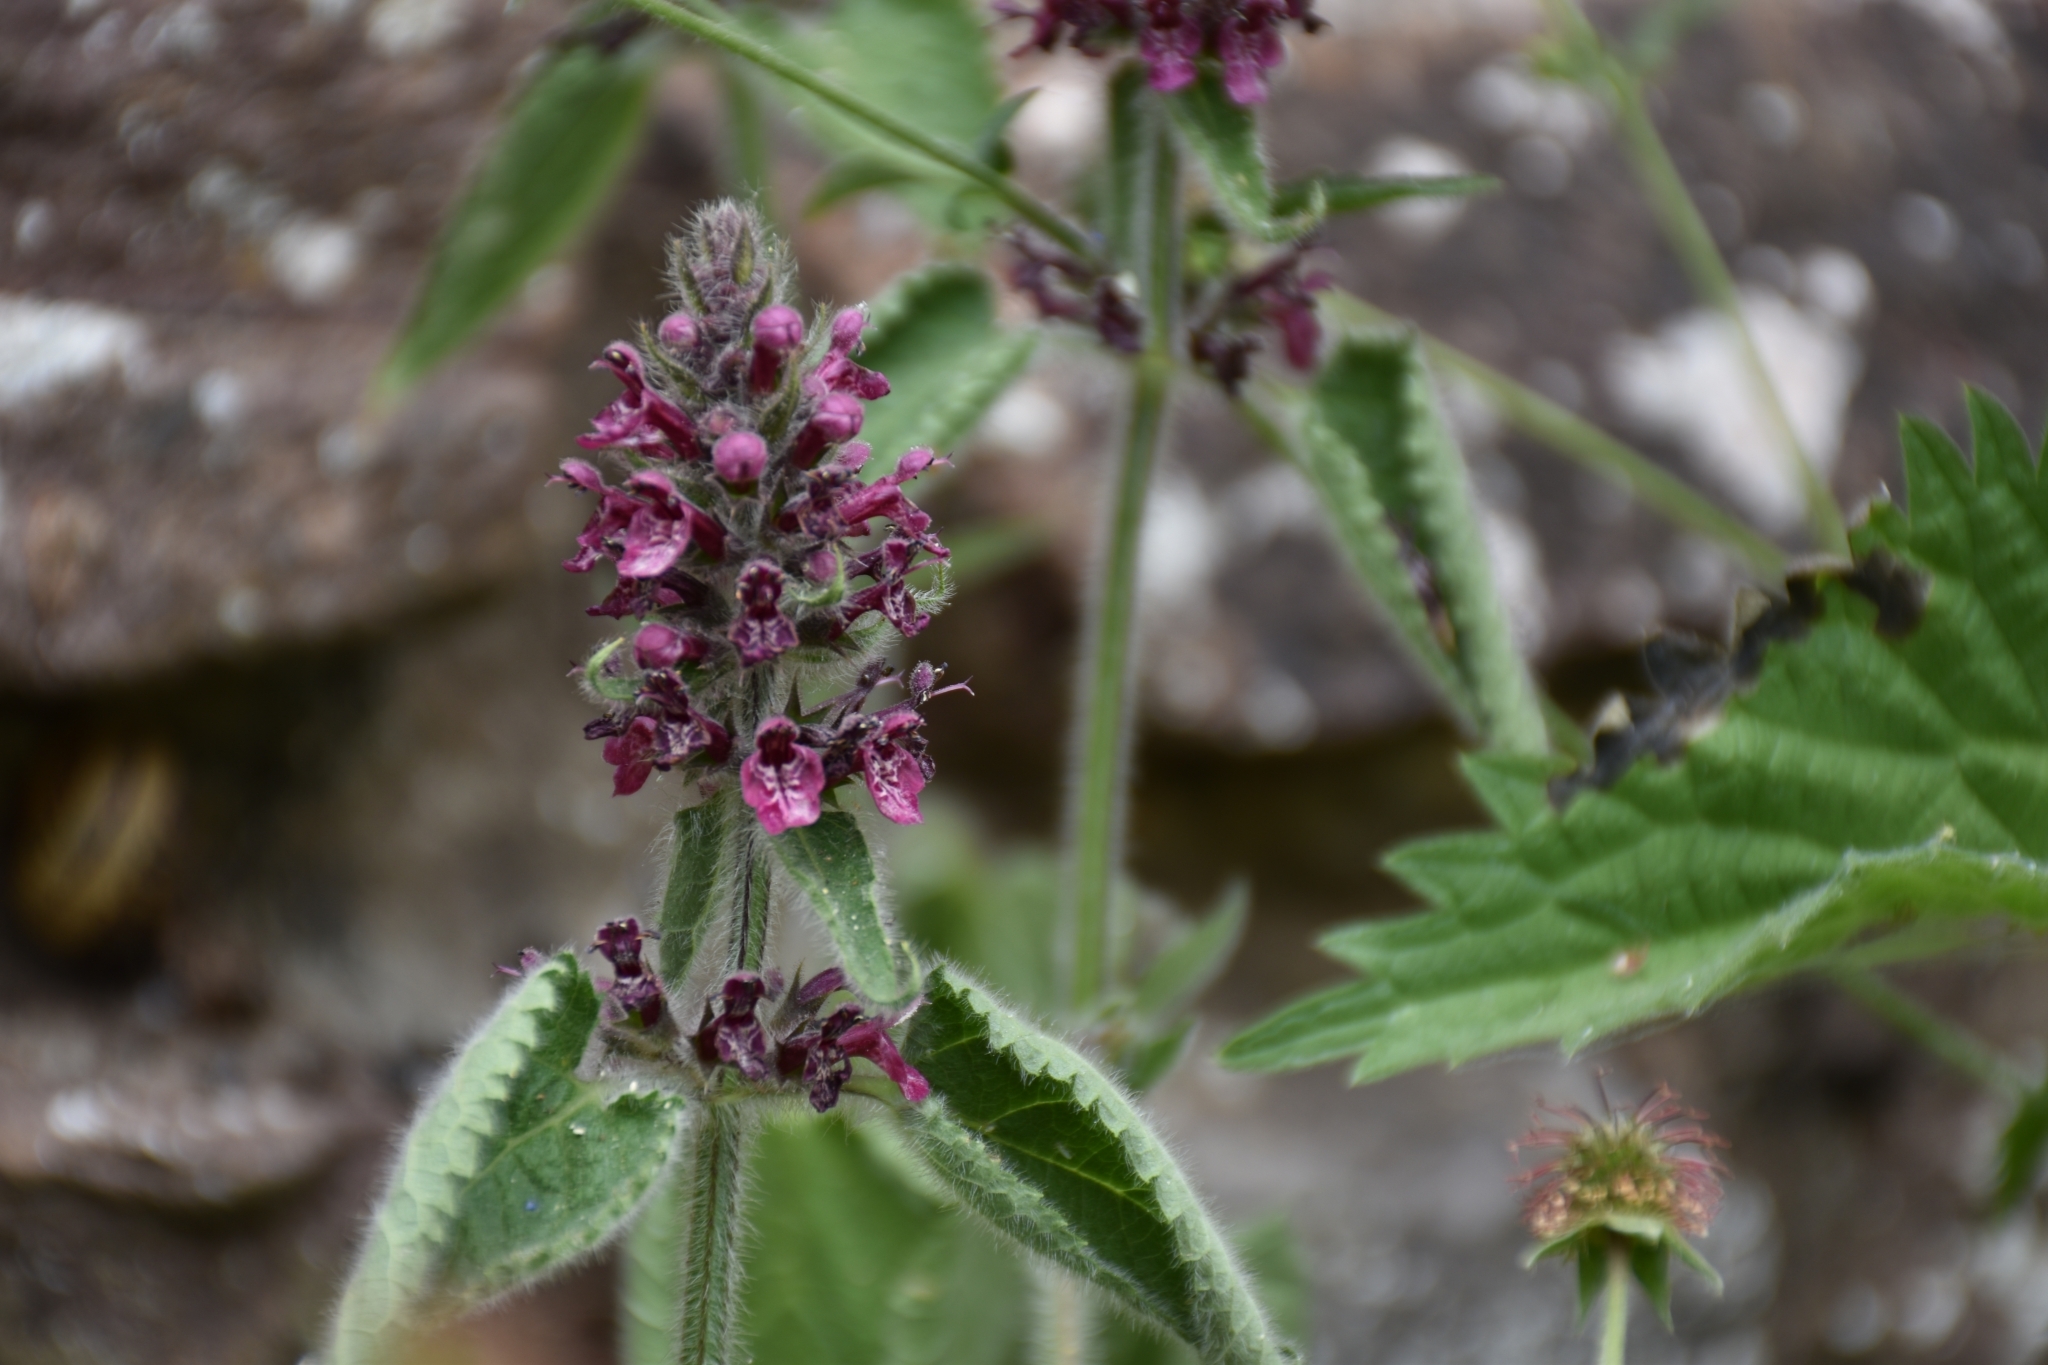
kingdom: Plantae
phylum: Tracheophyta
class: Magnoliopsida
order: Lamiales
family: Lamiaceae
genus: Stachys
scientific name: Stachys sylvatica
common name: Hedge woundwort
